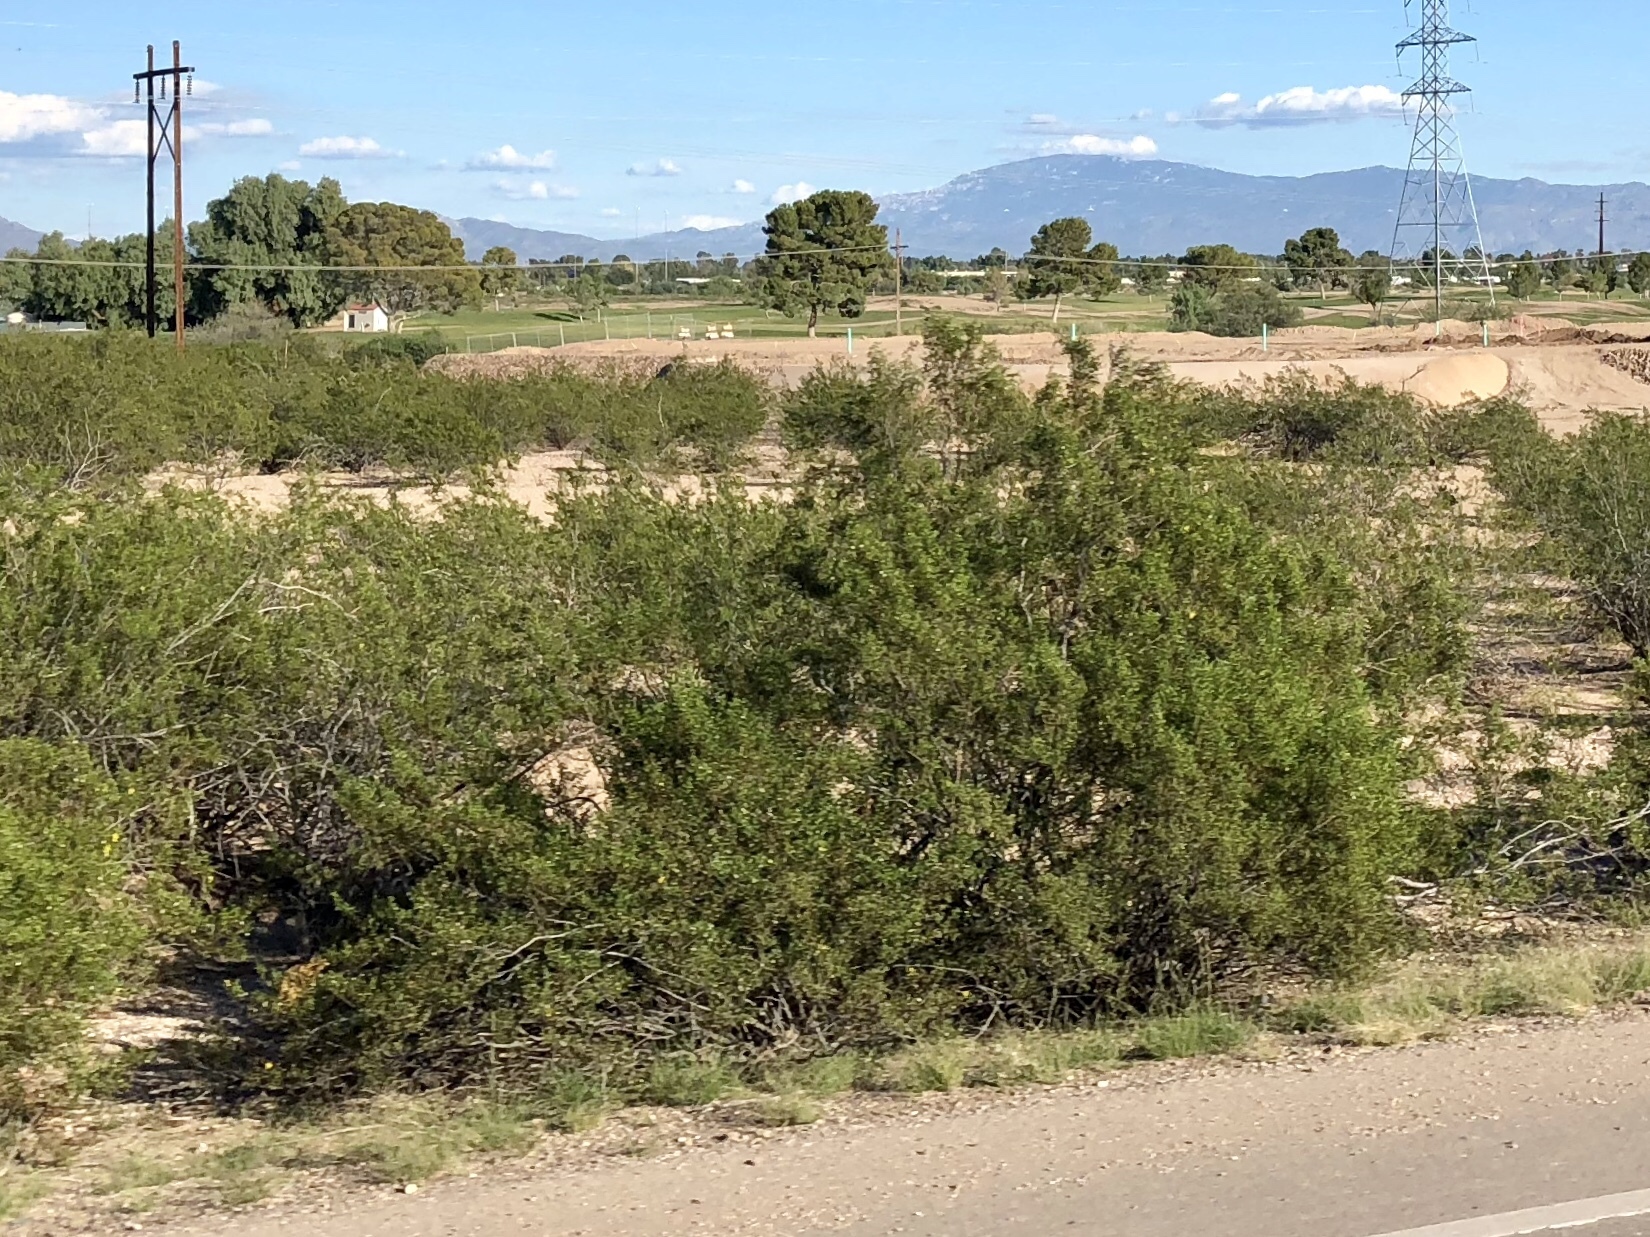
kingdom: Plantae
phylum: Tracheophyta
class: Magnoliopsida
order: Zygophyllales
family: Zygophyllaceae
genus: Larrea
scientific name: Larrea tridentata
